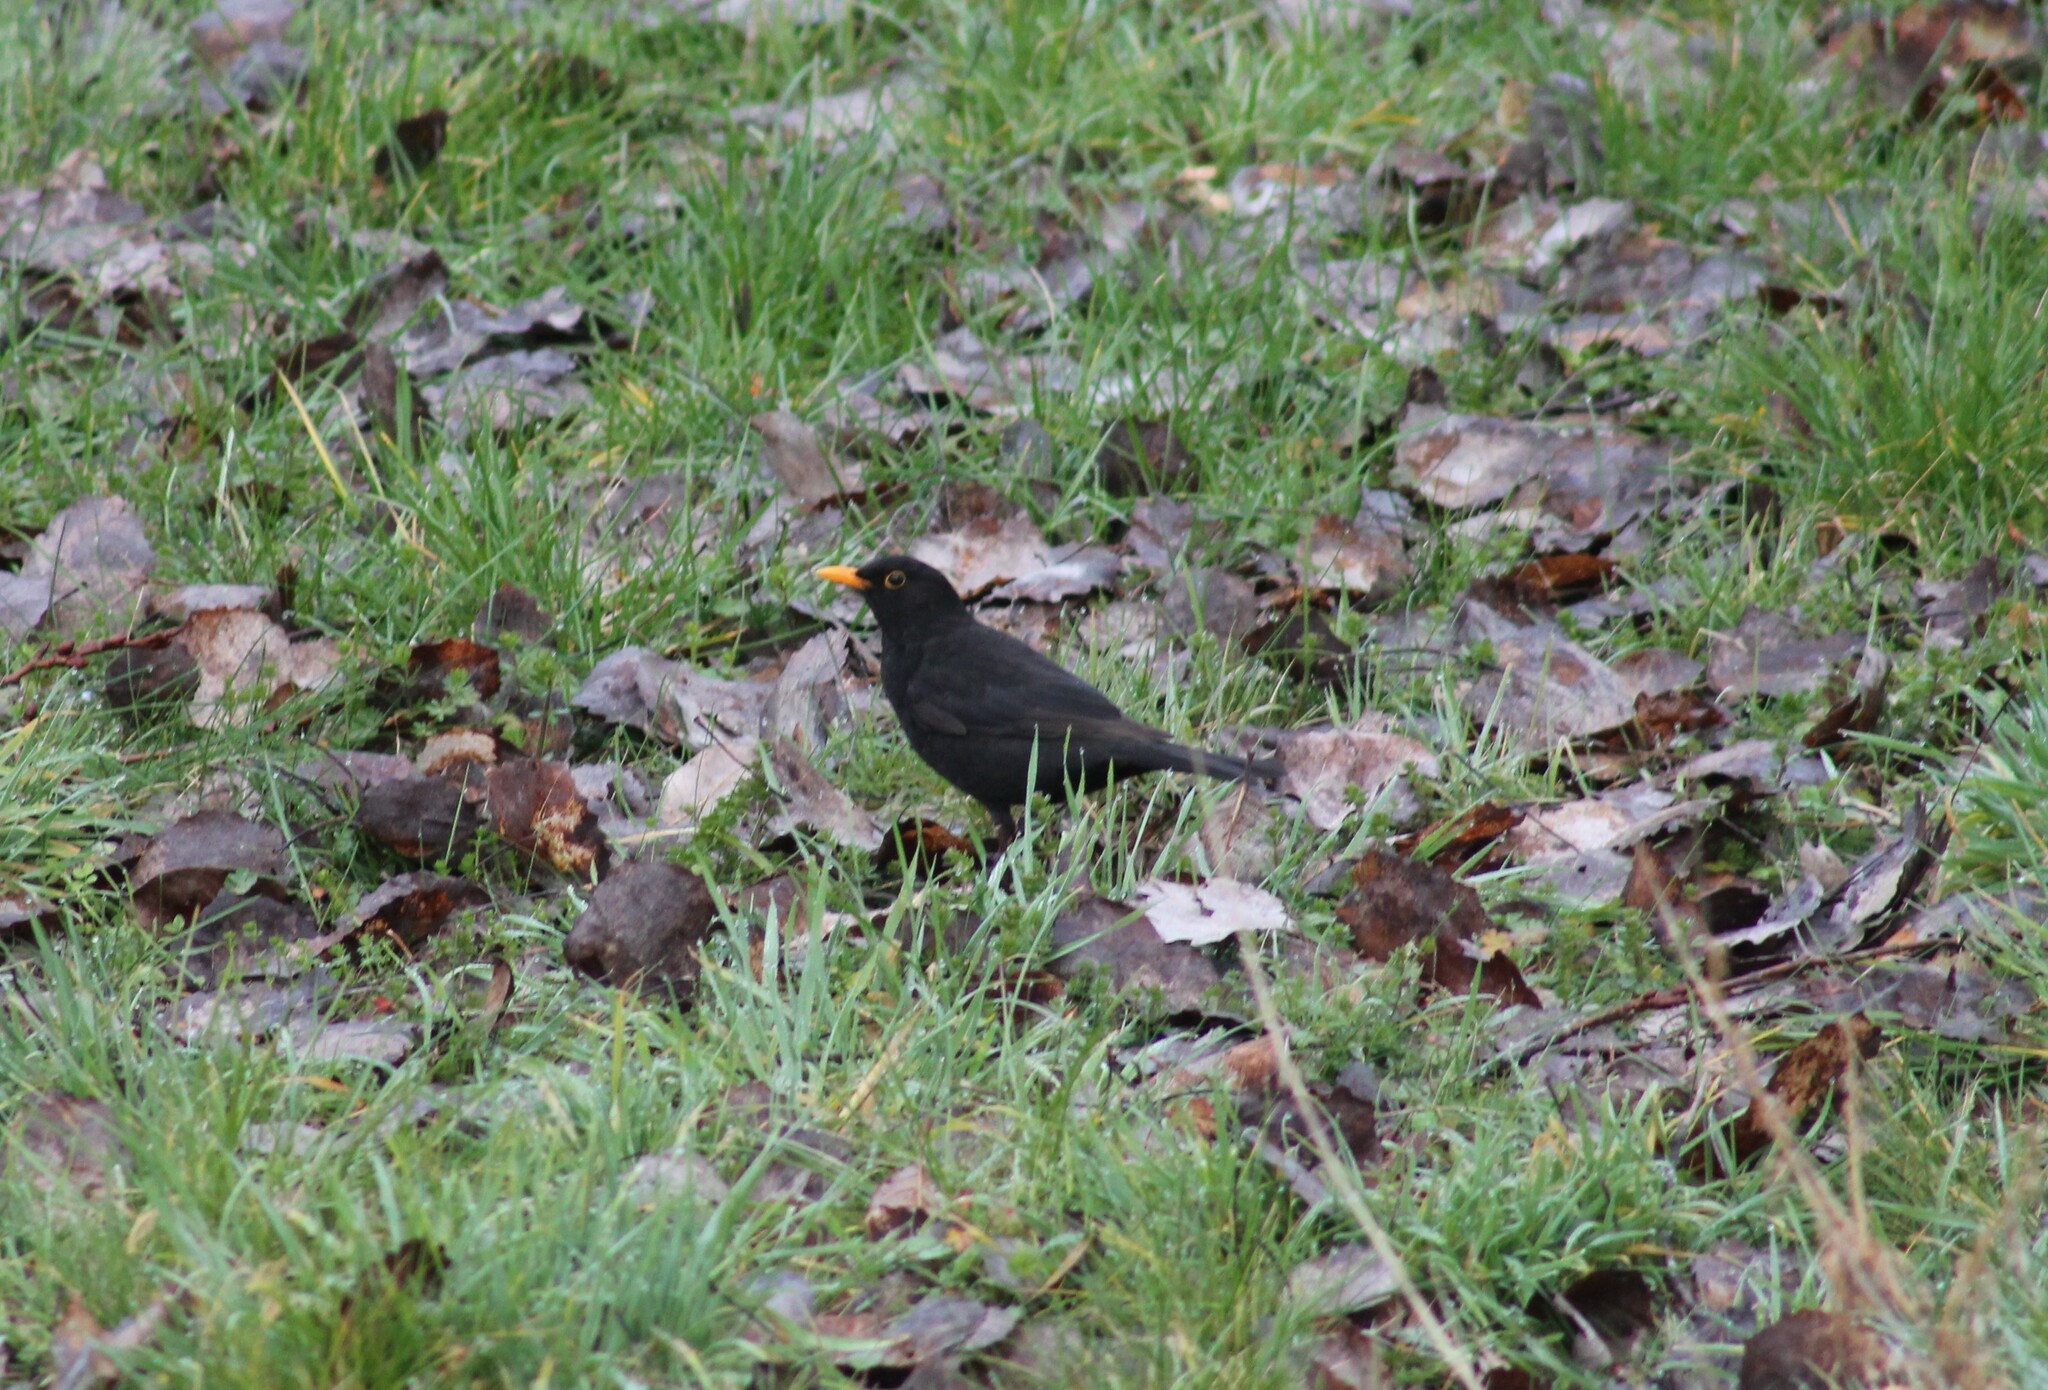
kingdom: Animalia
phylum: Chordata
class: Aves
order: Passeriformes
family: Turdidae
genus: Turdus
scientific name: Turdus merula
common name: Common blackbird
